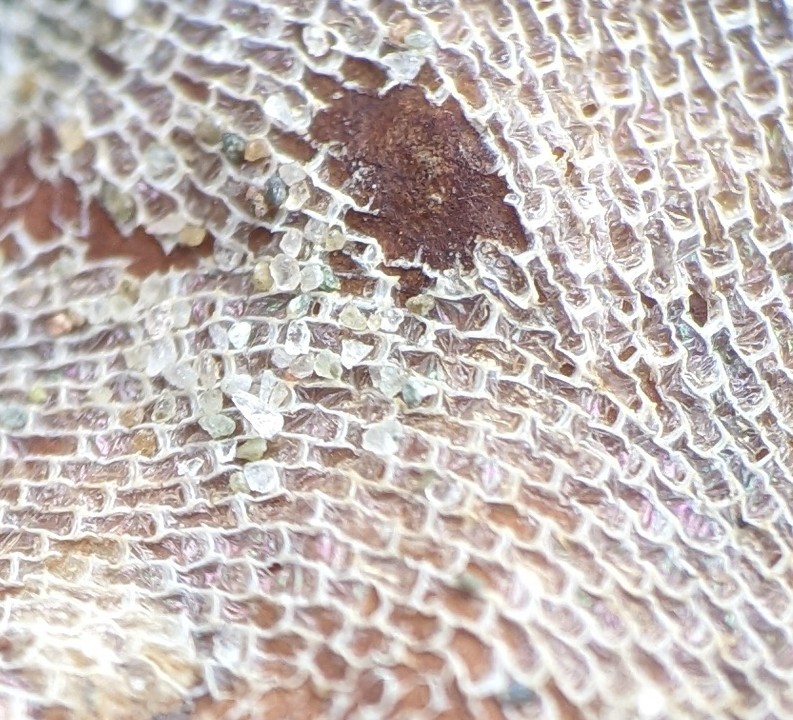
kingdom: Animalia
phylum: Bryozoa
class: Gymnolaemata
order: Cheilostomatida
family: Membraniporidae
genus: Membranipora
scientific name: Membranipora membranacea
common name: Sea mat
